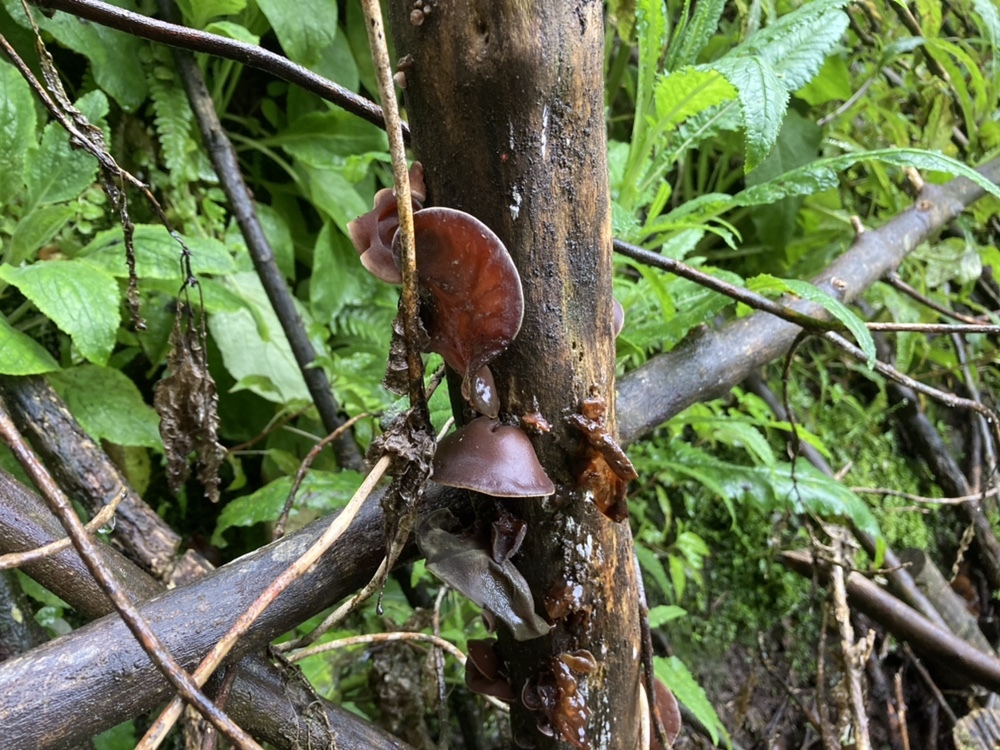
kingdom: Fungi
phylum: Basidiomycota
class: Agaricomycetes
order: Auriculariales
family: Auriculariaceae
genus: Auricularia
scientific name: Auricularia cornea
